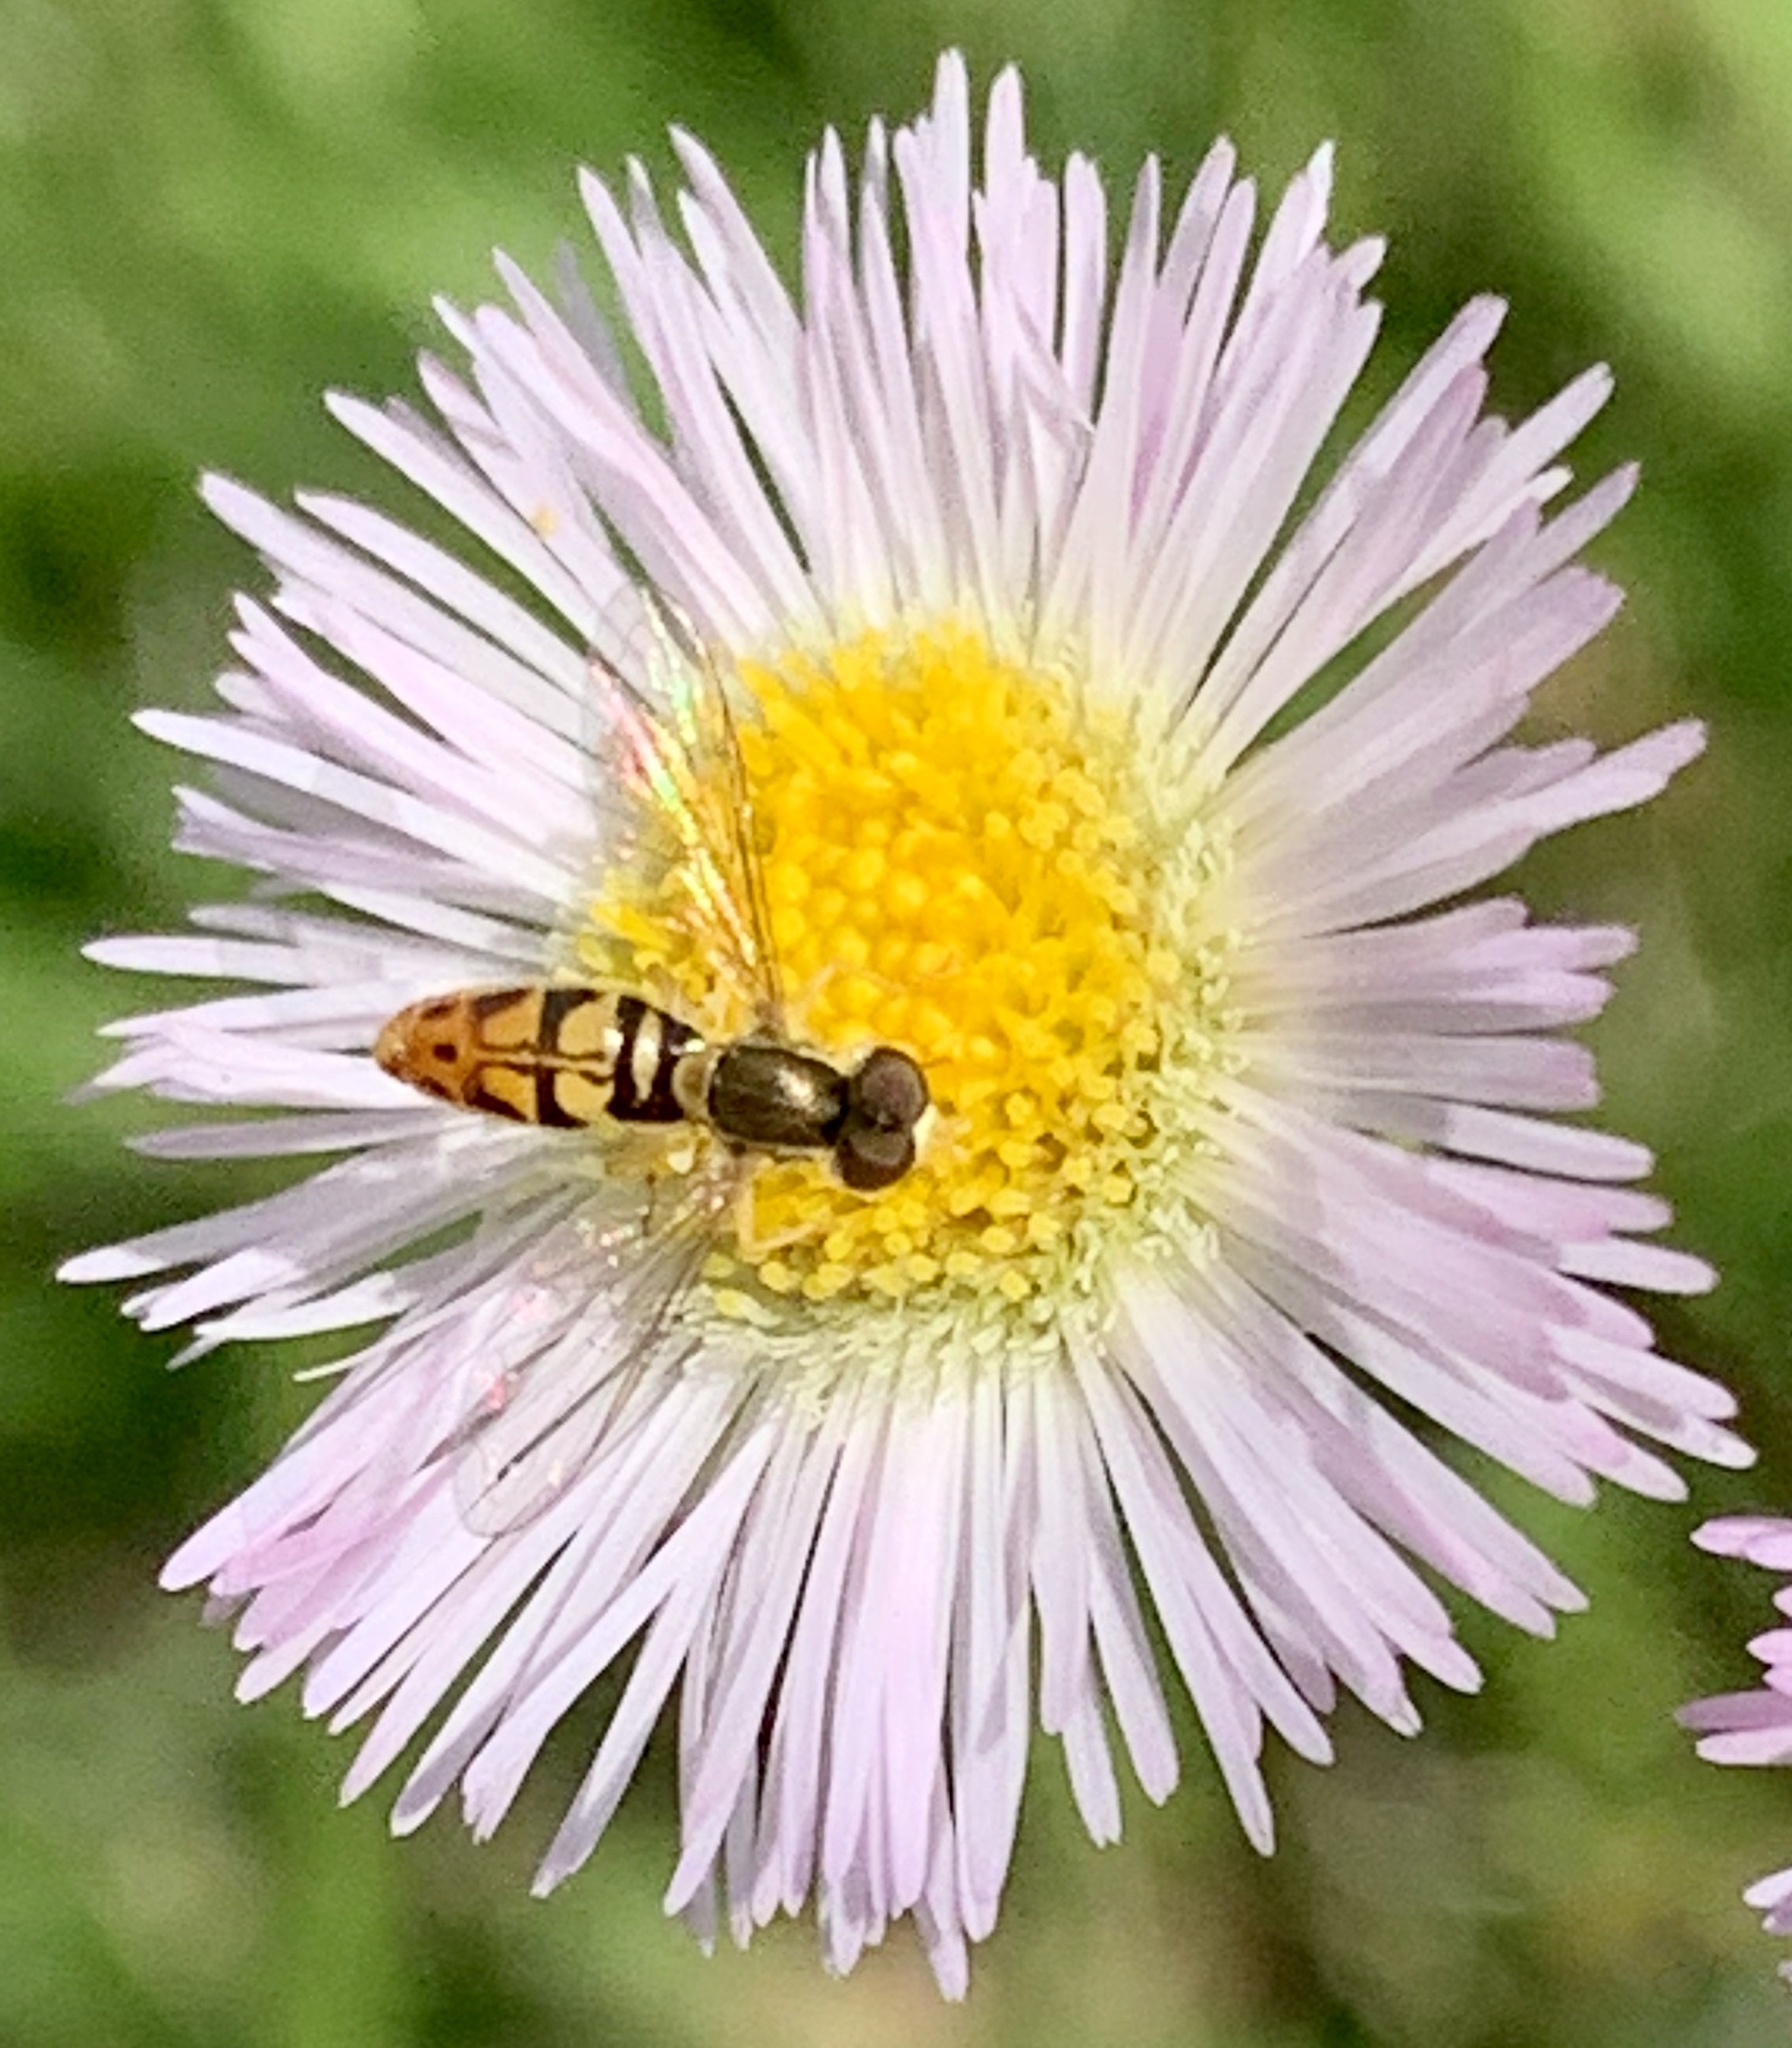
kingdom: Animalia
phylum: Arthropoda
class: Insecta
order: Diptera
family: Syrphidae
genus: Toxomerus
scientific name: Toxomerus marginatus
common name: Syrphid fly
